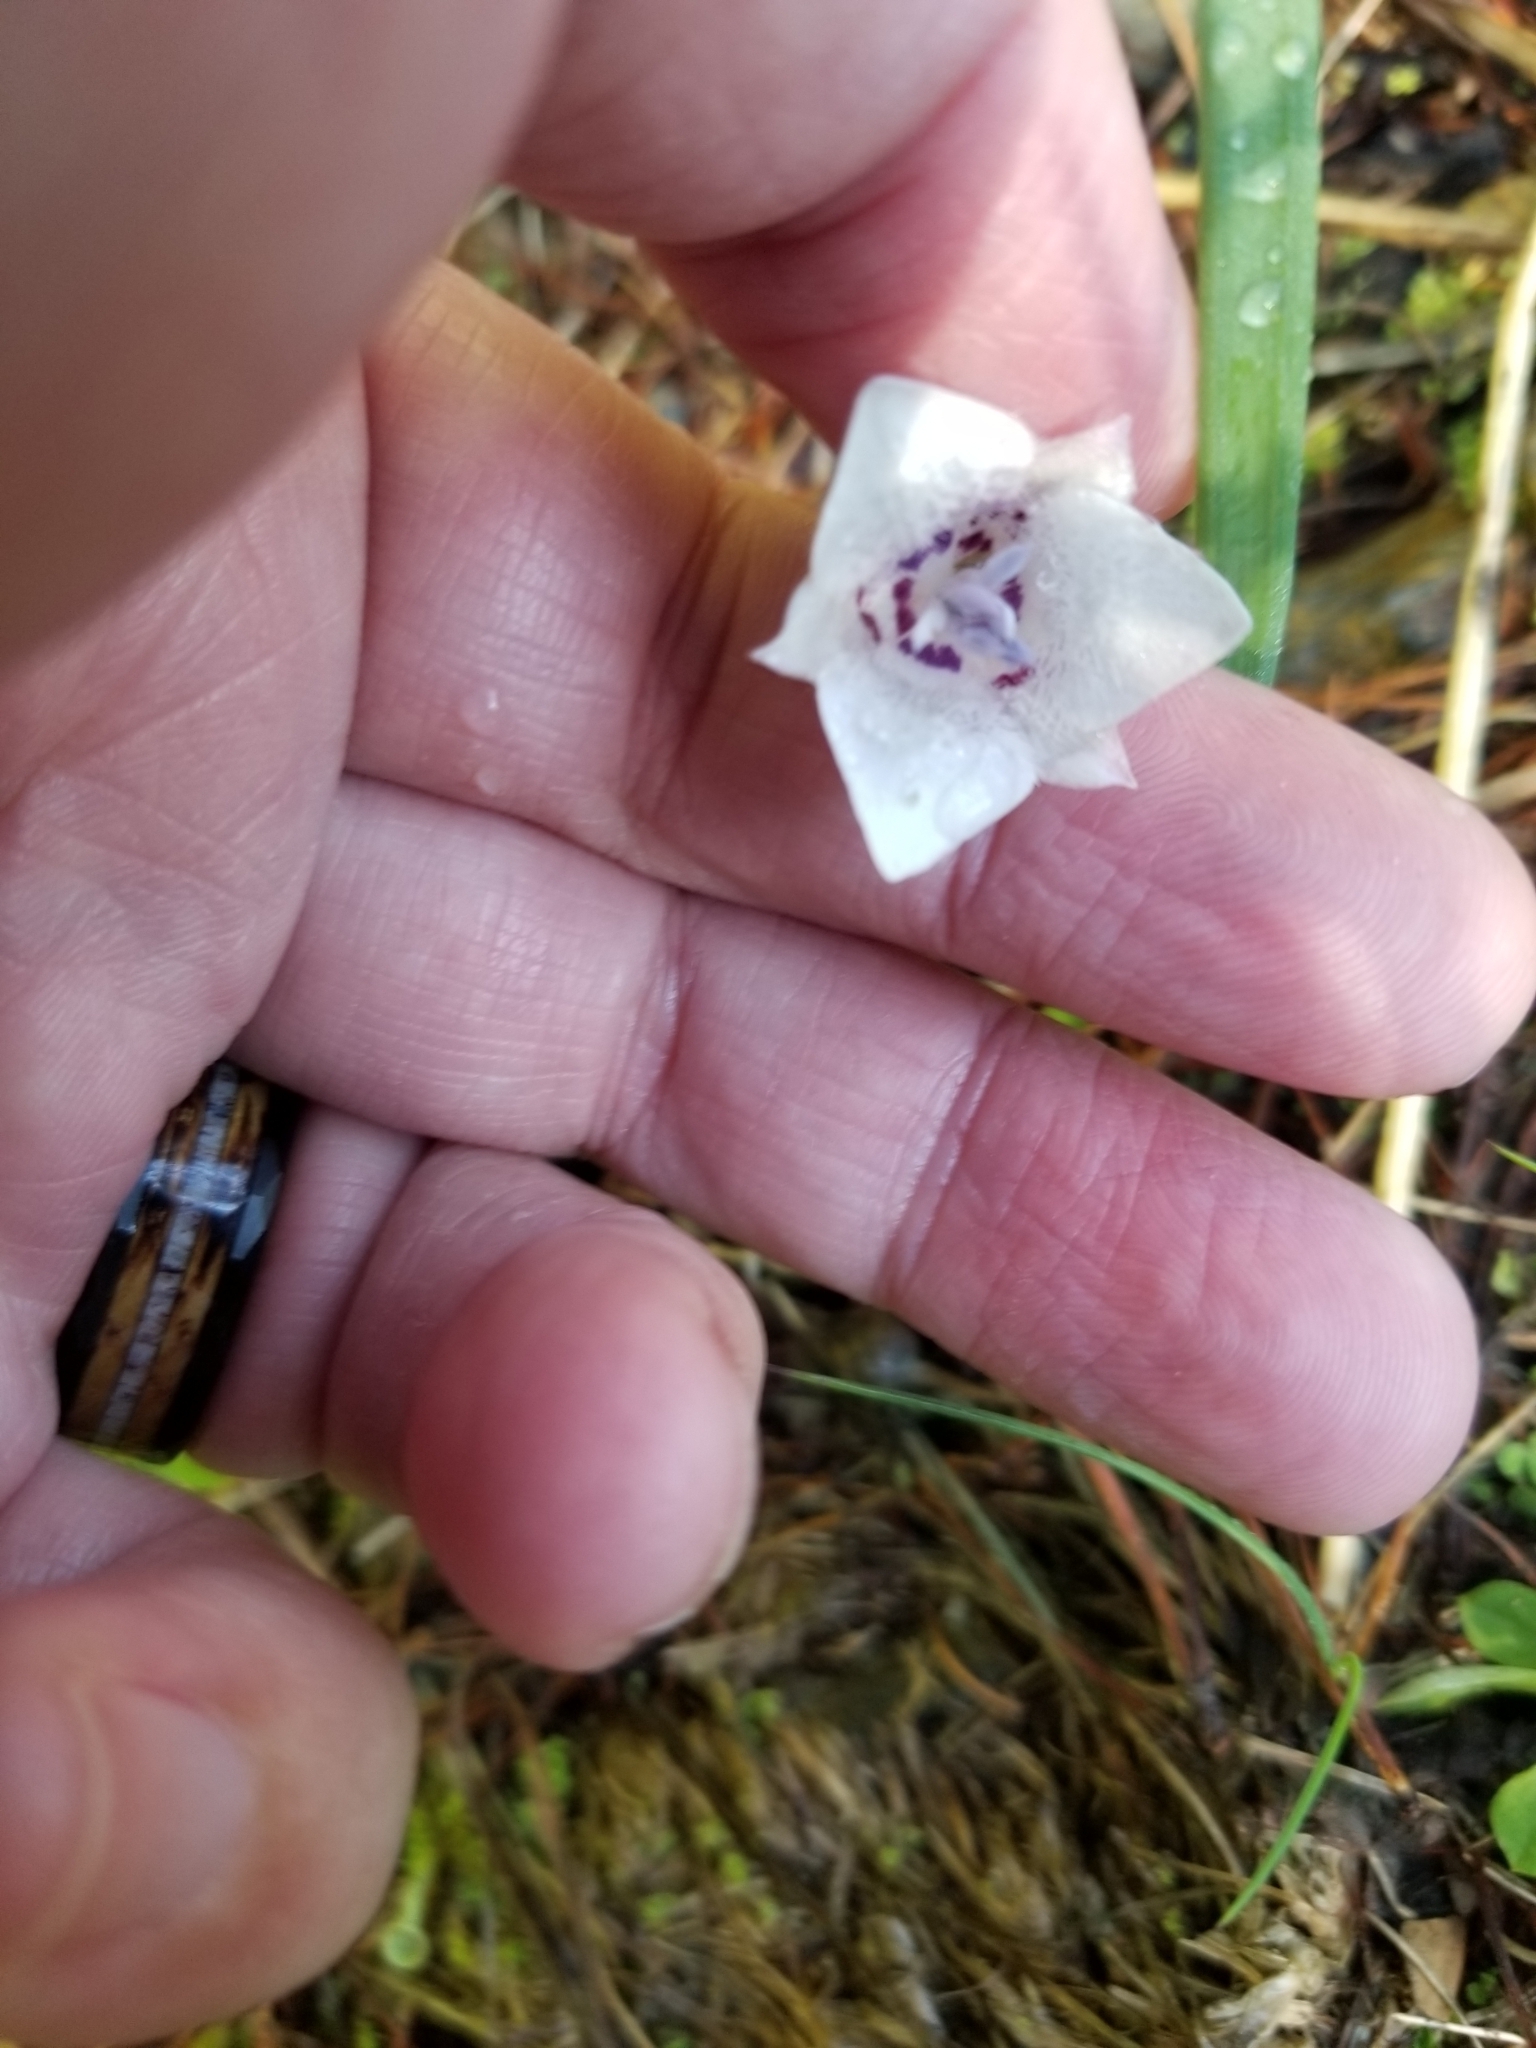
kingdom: Plantae
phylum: Tracheophyta
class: Liliopsida
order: Liliales
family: Liliaceae
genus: Calochortus
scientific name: Calochortus elegans
